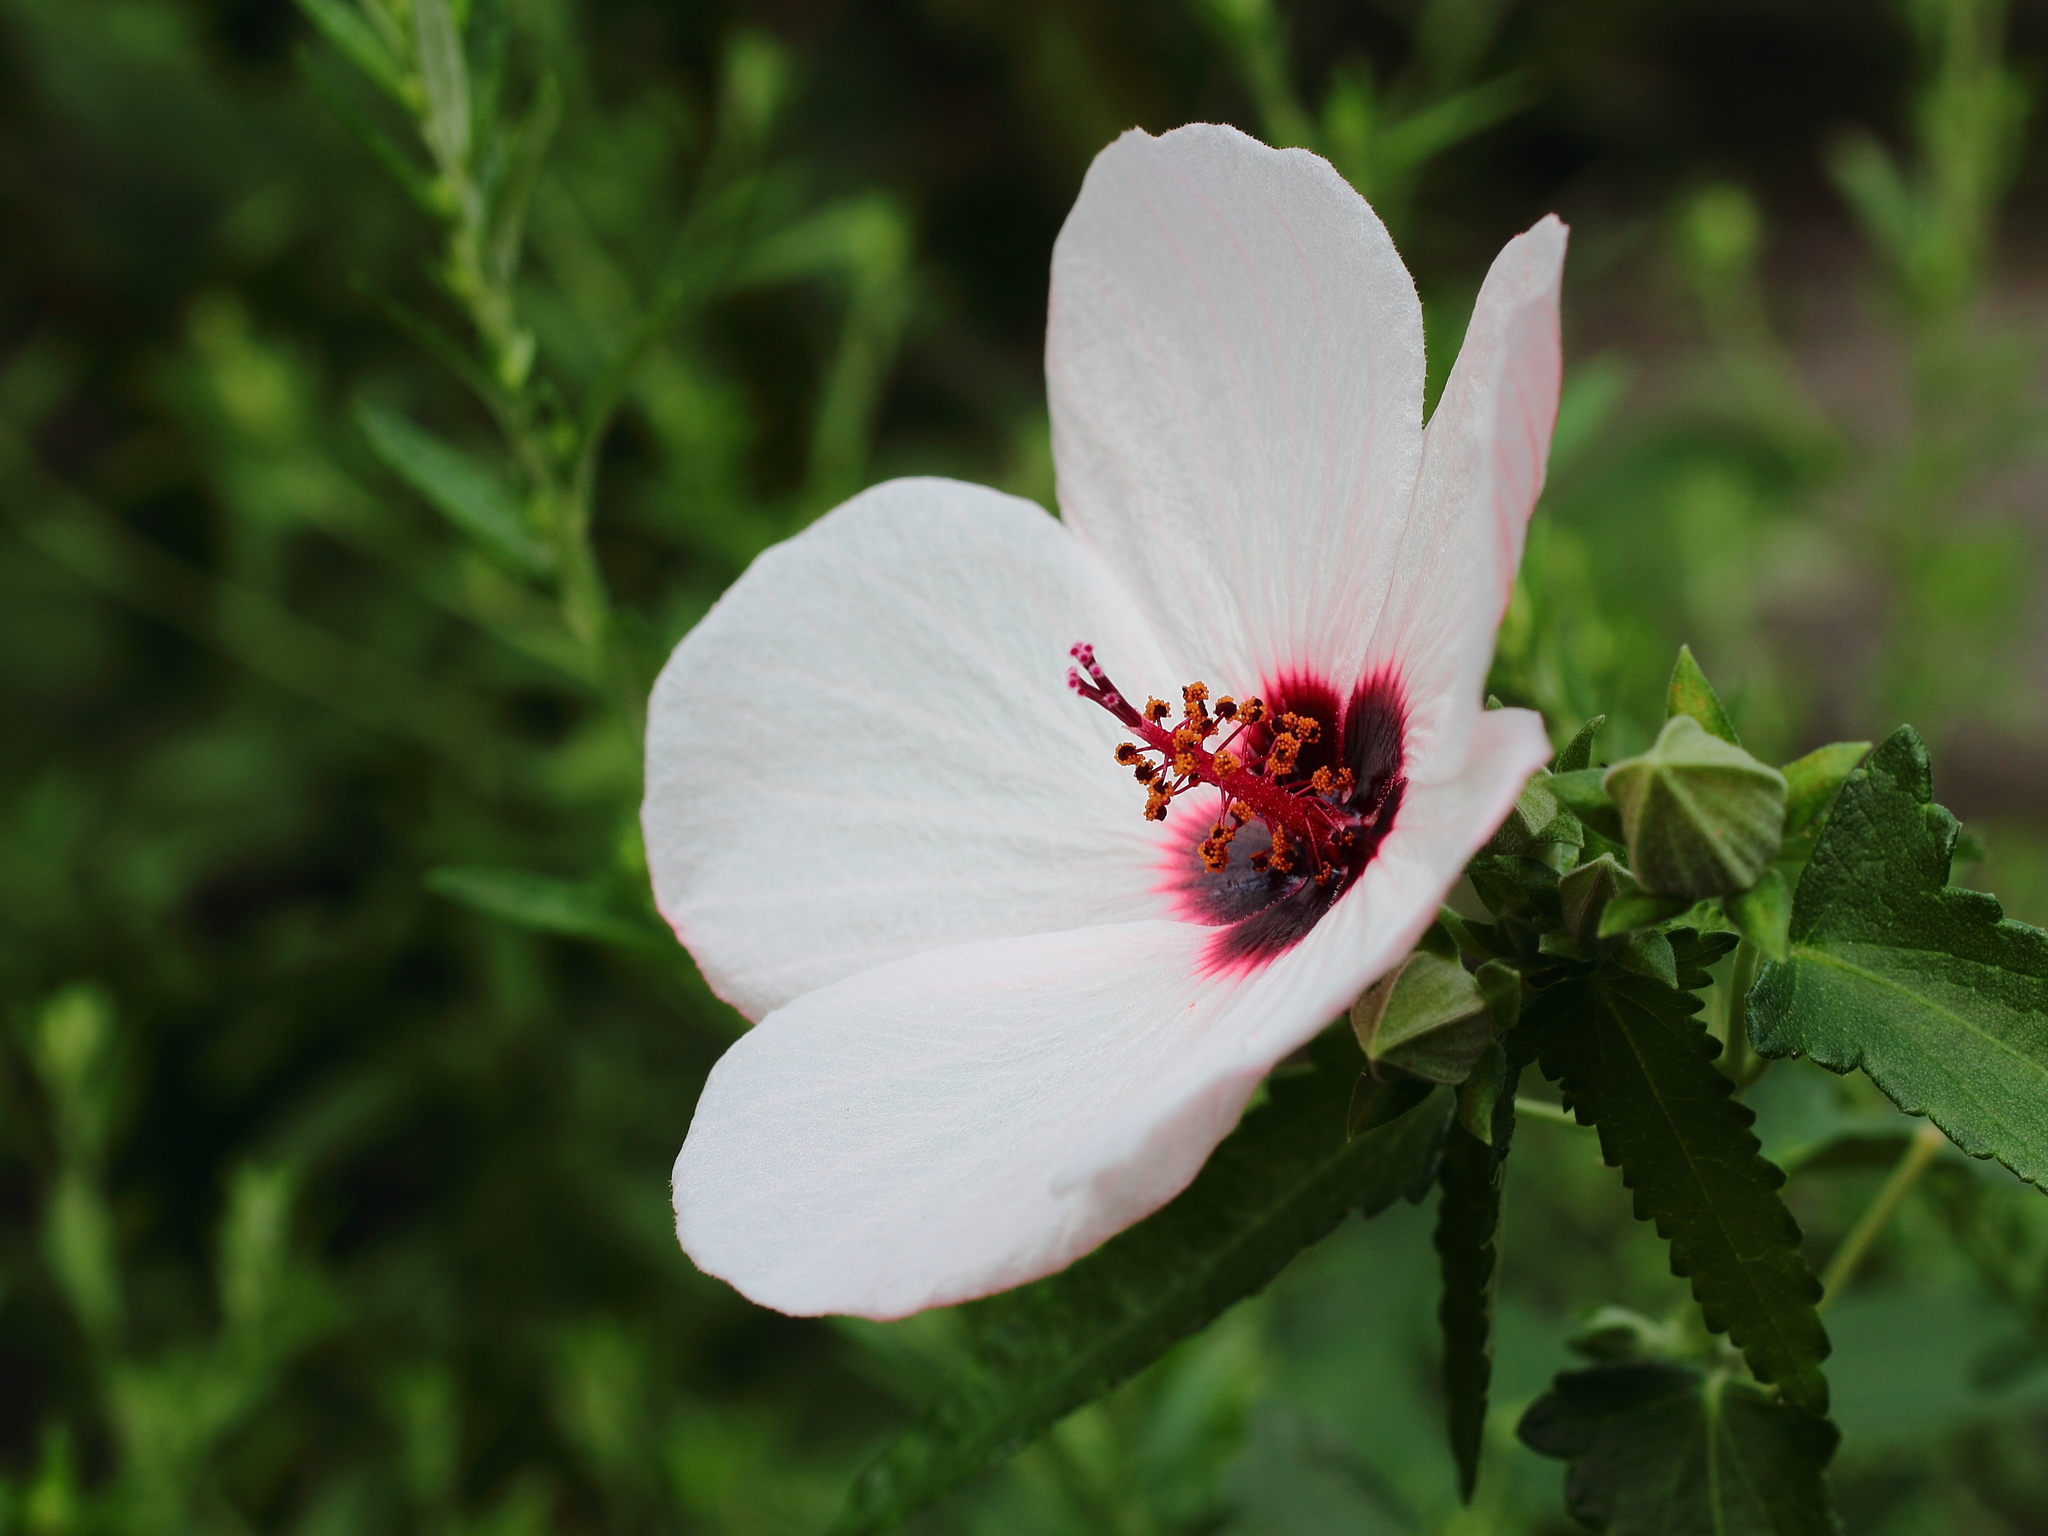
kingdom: Plantae
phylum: Tracheophyta
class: Magnoliopsida
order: Malvales
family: Malvaceae
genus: Pavonia
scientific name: Pavonia hastata
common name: Spearleaf swampmallow
